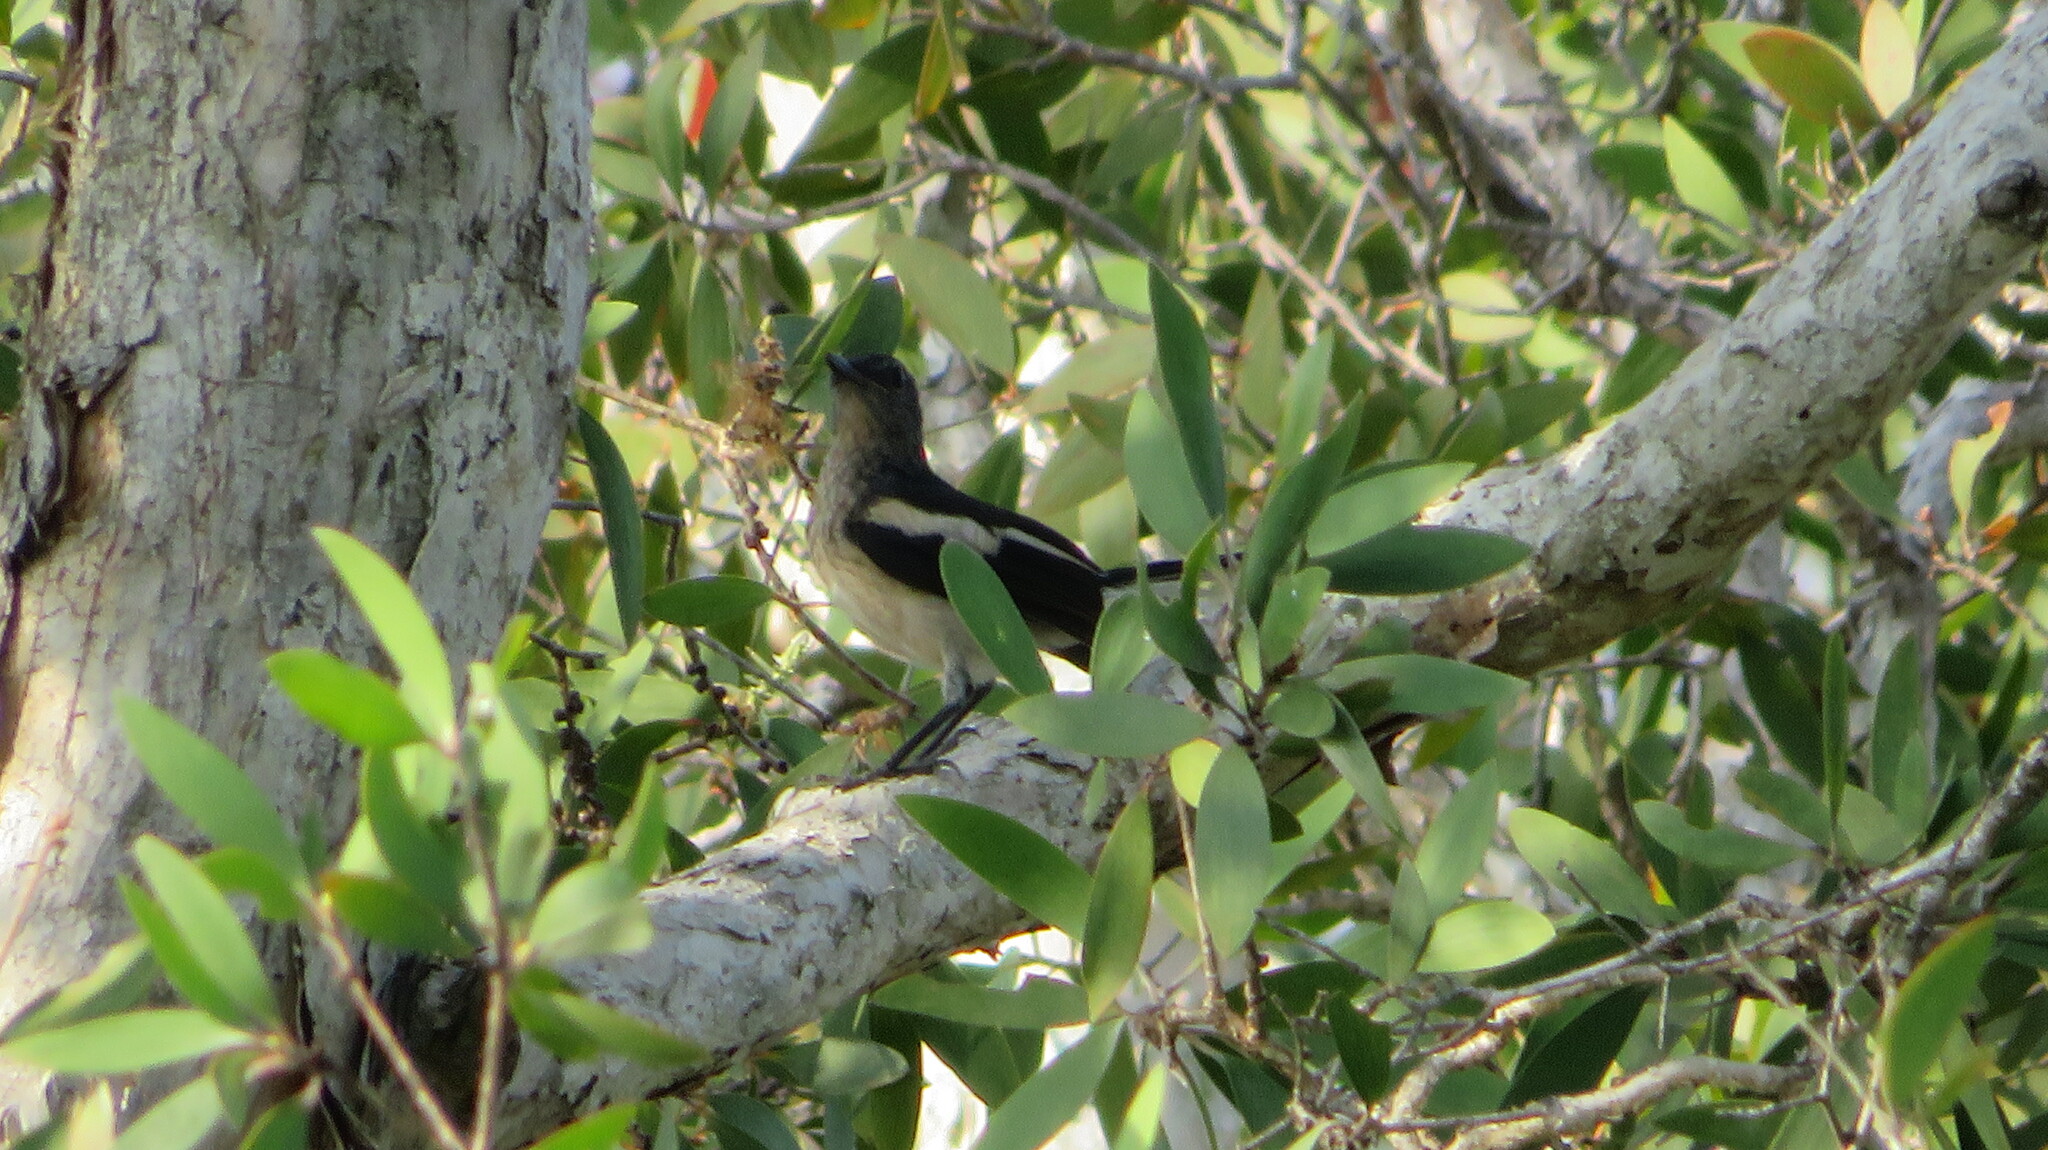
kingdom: Animalia
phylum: Chordata
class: Aves
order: Passeriformes
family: Muscicapidae
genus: Copsychus
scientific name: Copsychus saularis
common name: Oriental magpie-robin
